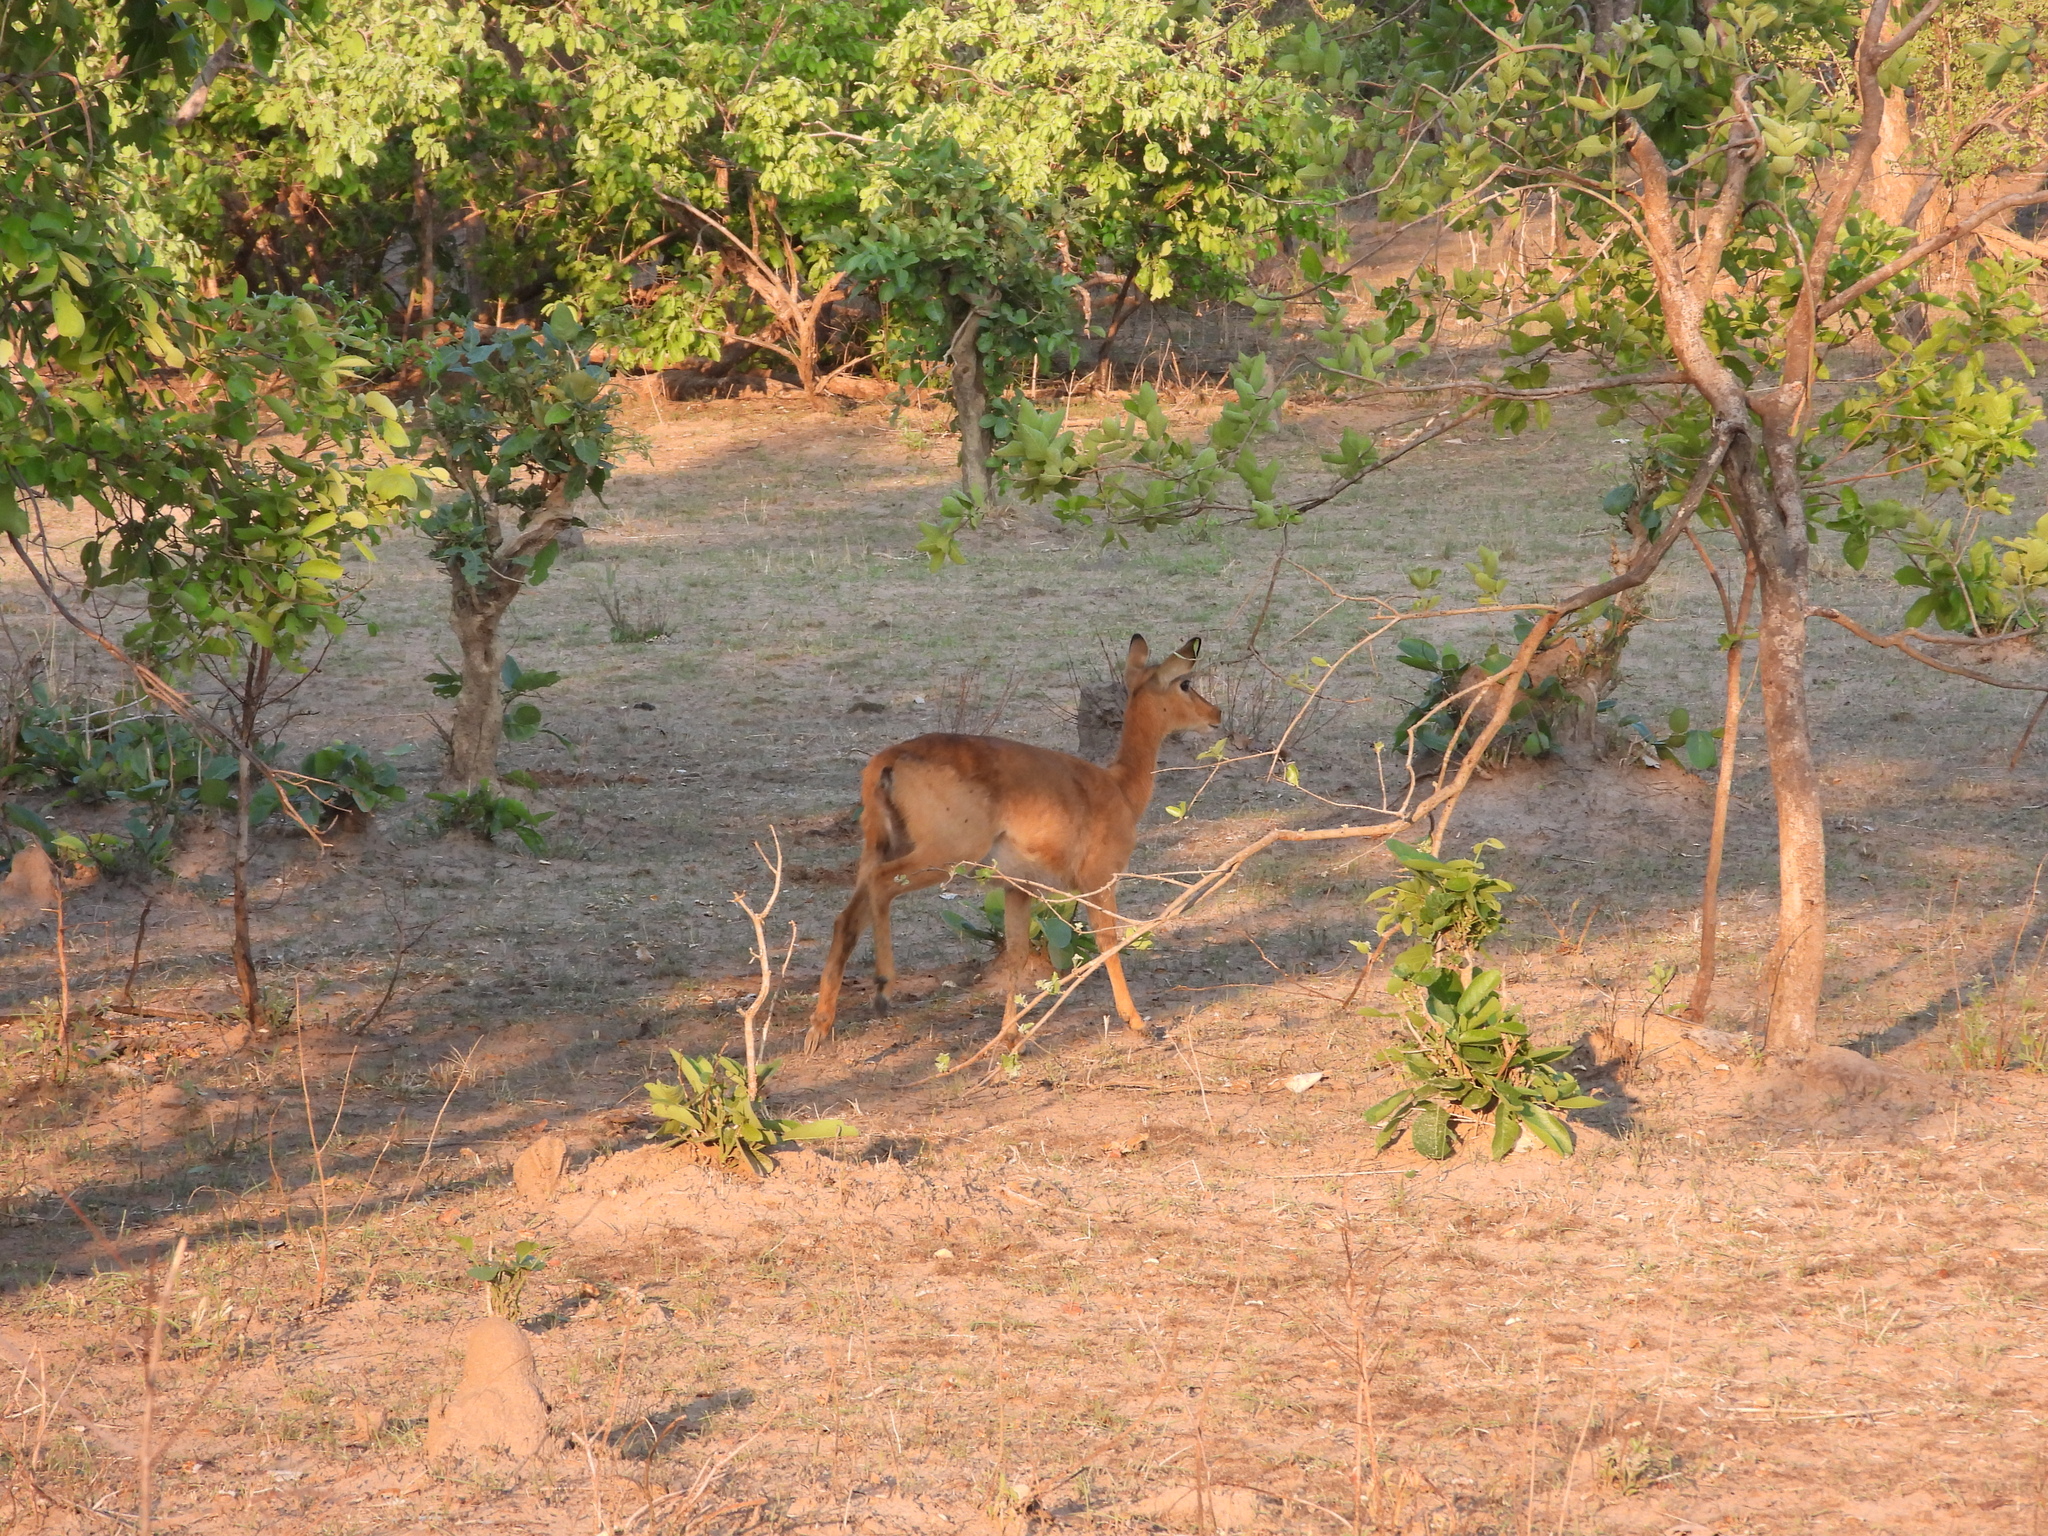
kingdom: Animalia
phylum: Chordata
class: Mammalia
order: Artiodactyla
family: Bovidae
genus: Kobus
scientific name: Kobus vardonii
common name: Puku
